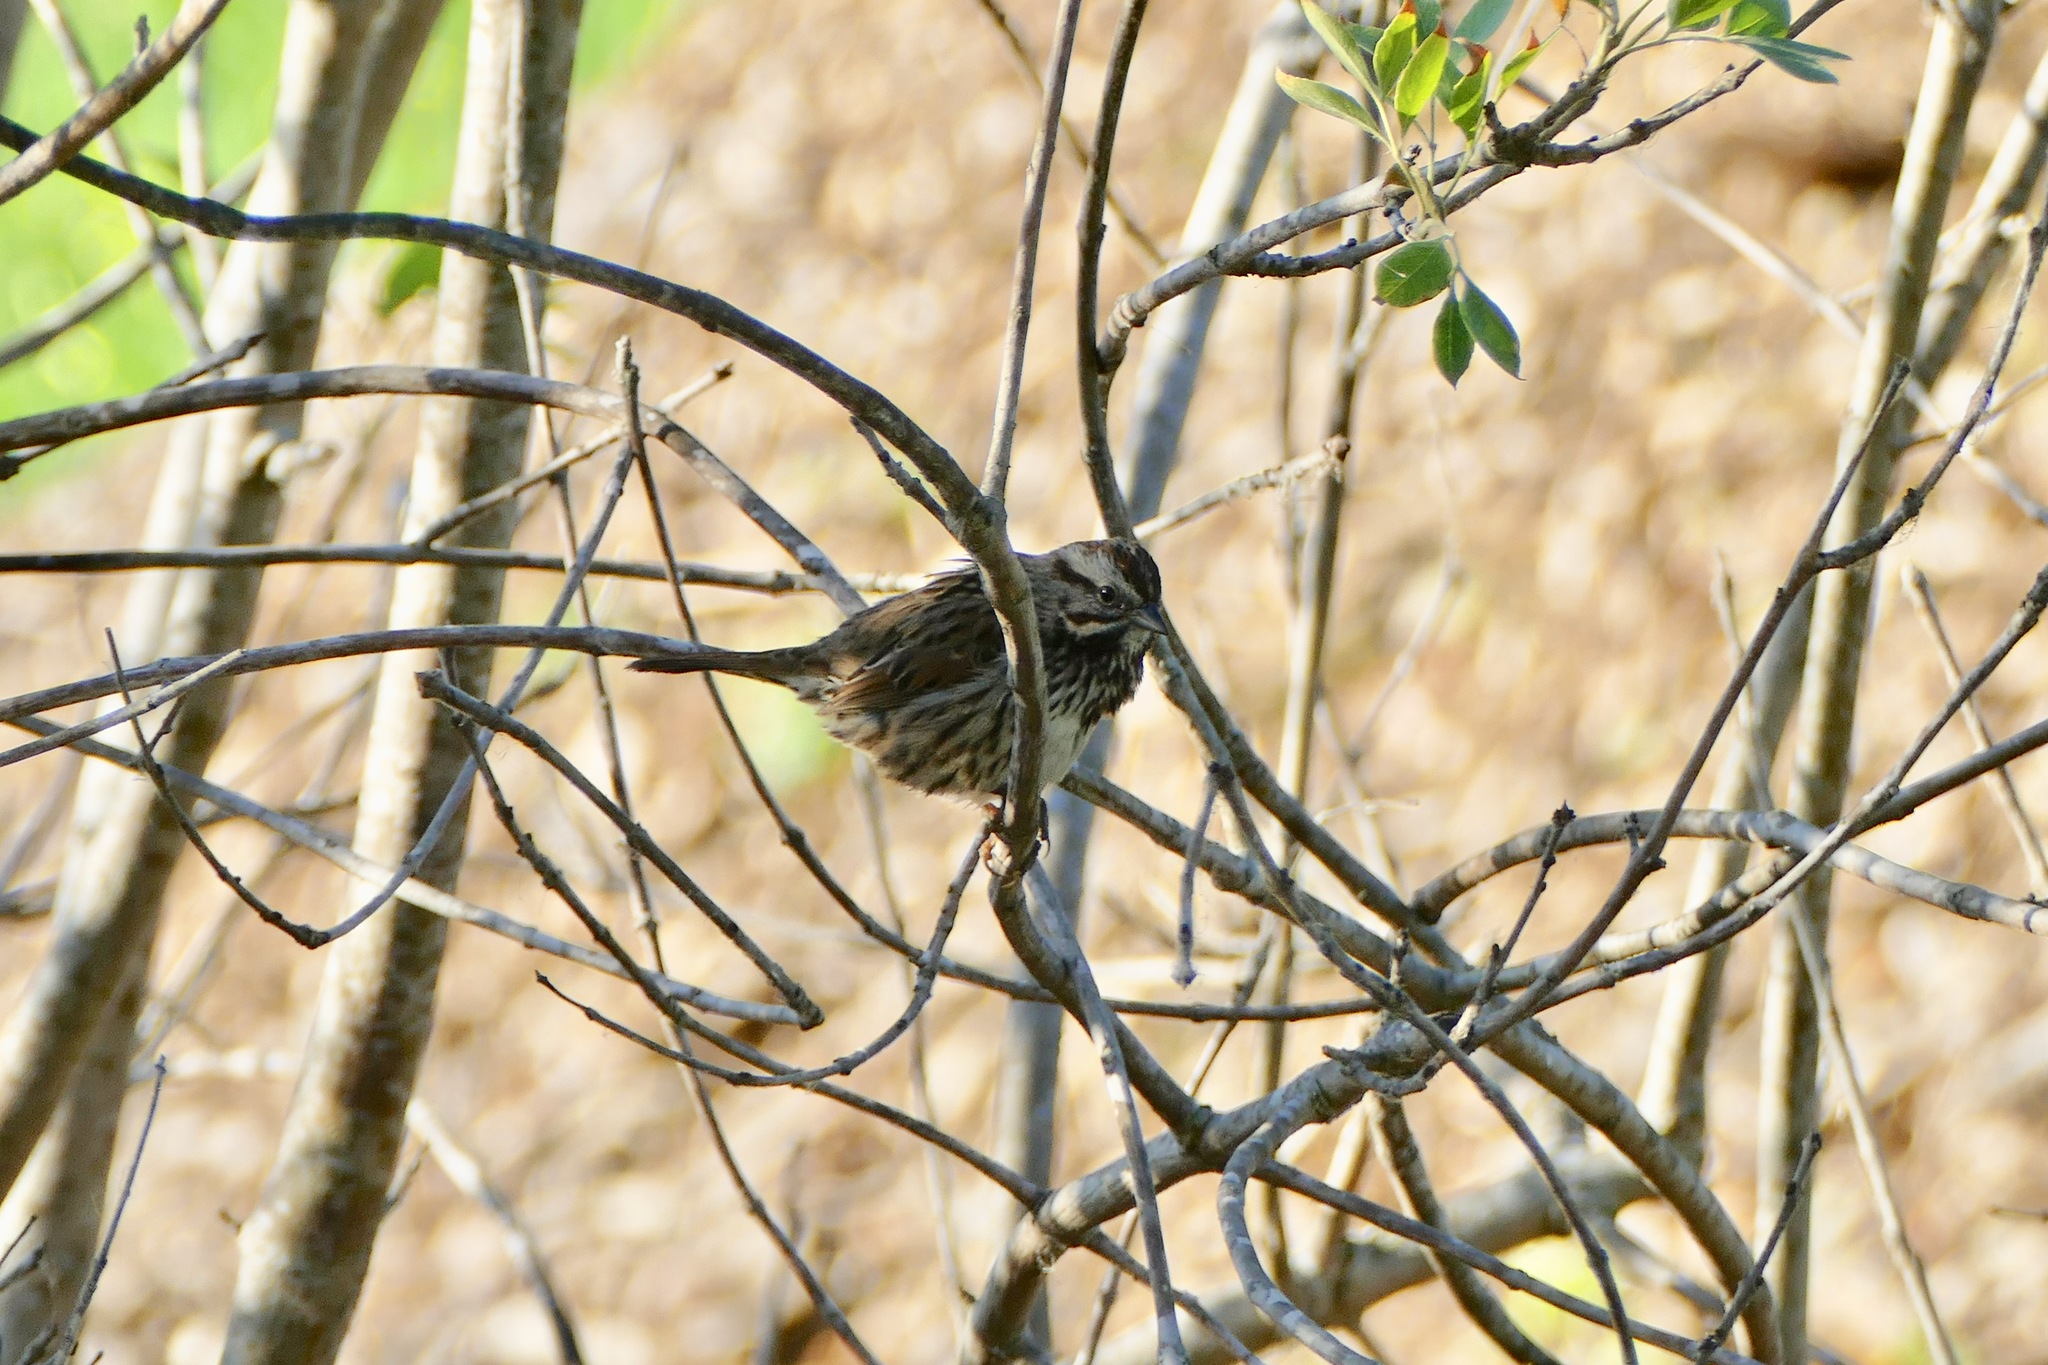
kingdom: Animalia
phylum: Chordata
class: Aves
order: Passeriformes
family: Passerellidae
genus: Melospiza
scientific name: Melospiza melodia
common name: Song sparrow
